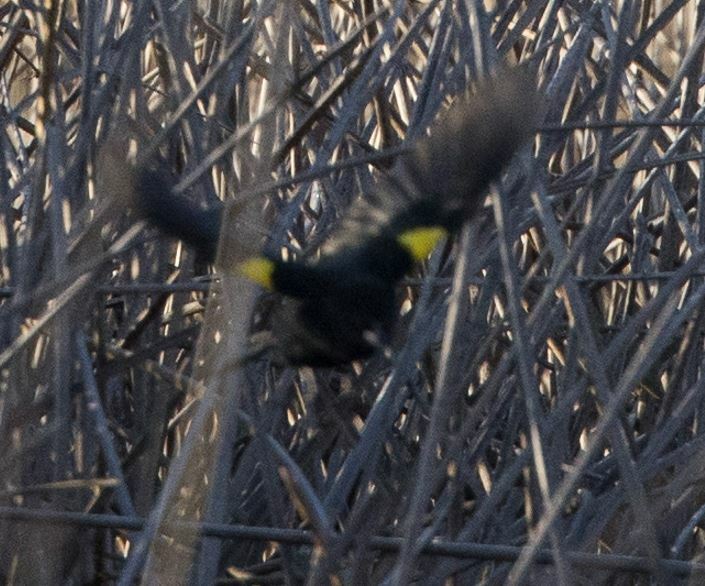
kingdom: Animalia
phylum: Chordata
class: Aves
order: Passeriformes
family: Icteridae
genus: Agelasticus
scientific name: Agelasticus thilius
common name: Yellow-winged blackbird
